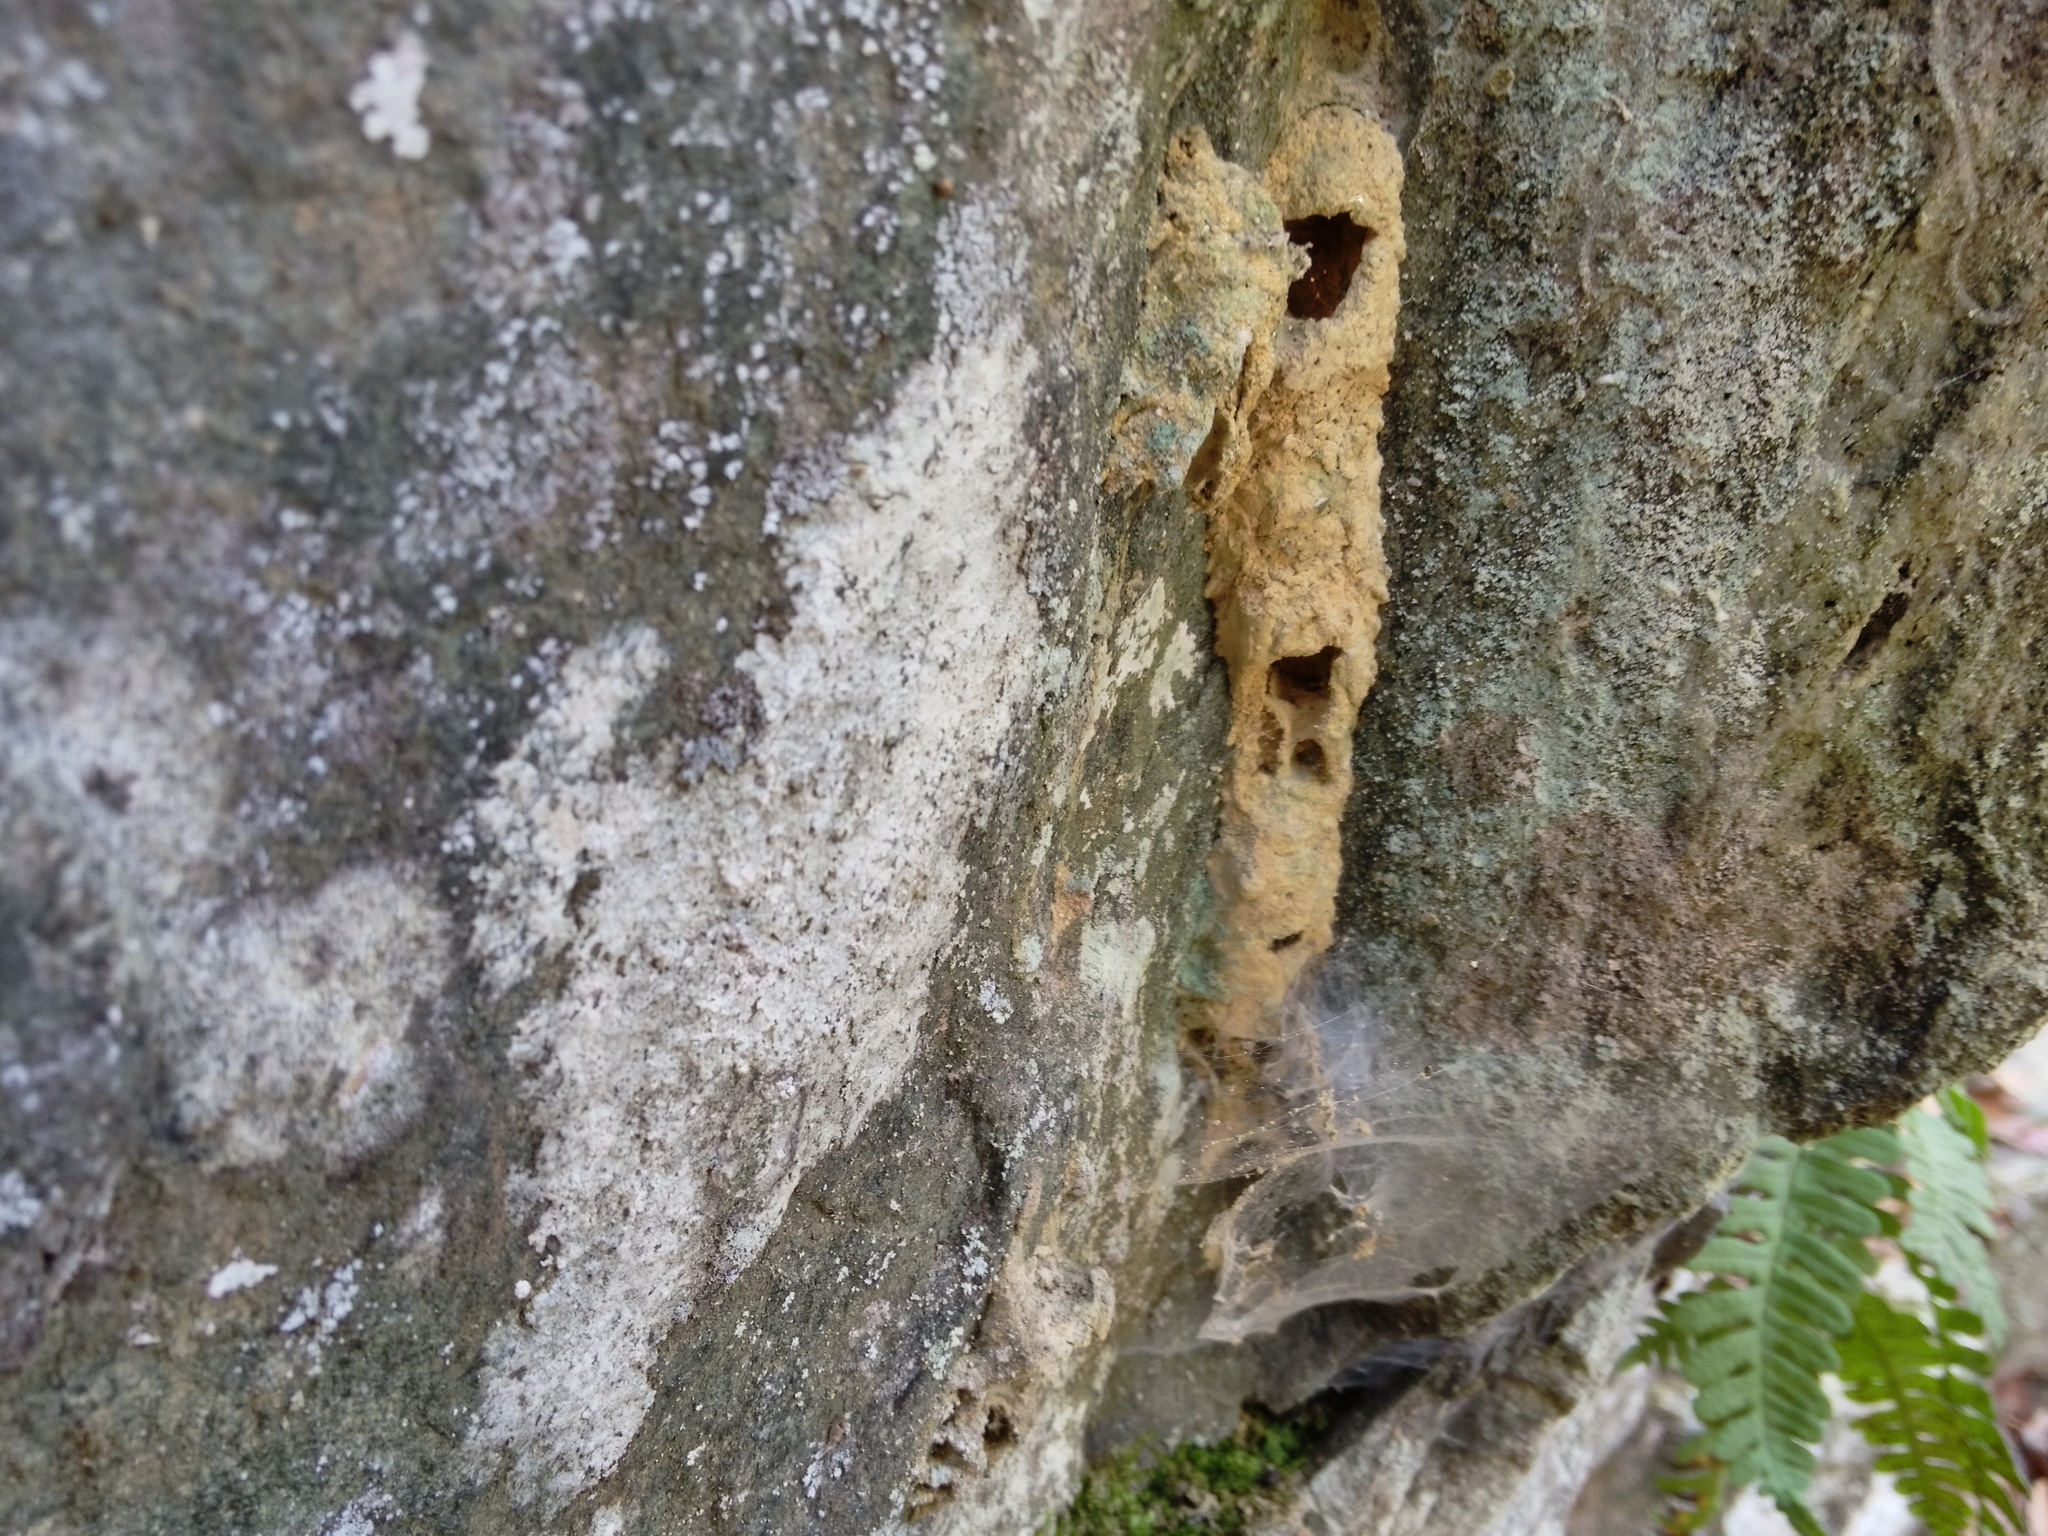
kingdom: Animalia
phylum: Arthropoda
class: Insecta
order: Hymenoptera
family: Crabronidae
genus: Trypoxylon
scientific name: Trypoxylon politum
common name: Organ-pipe mud-dauber wasp
